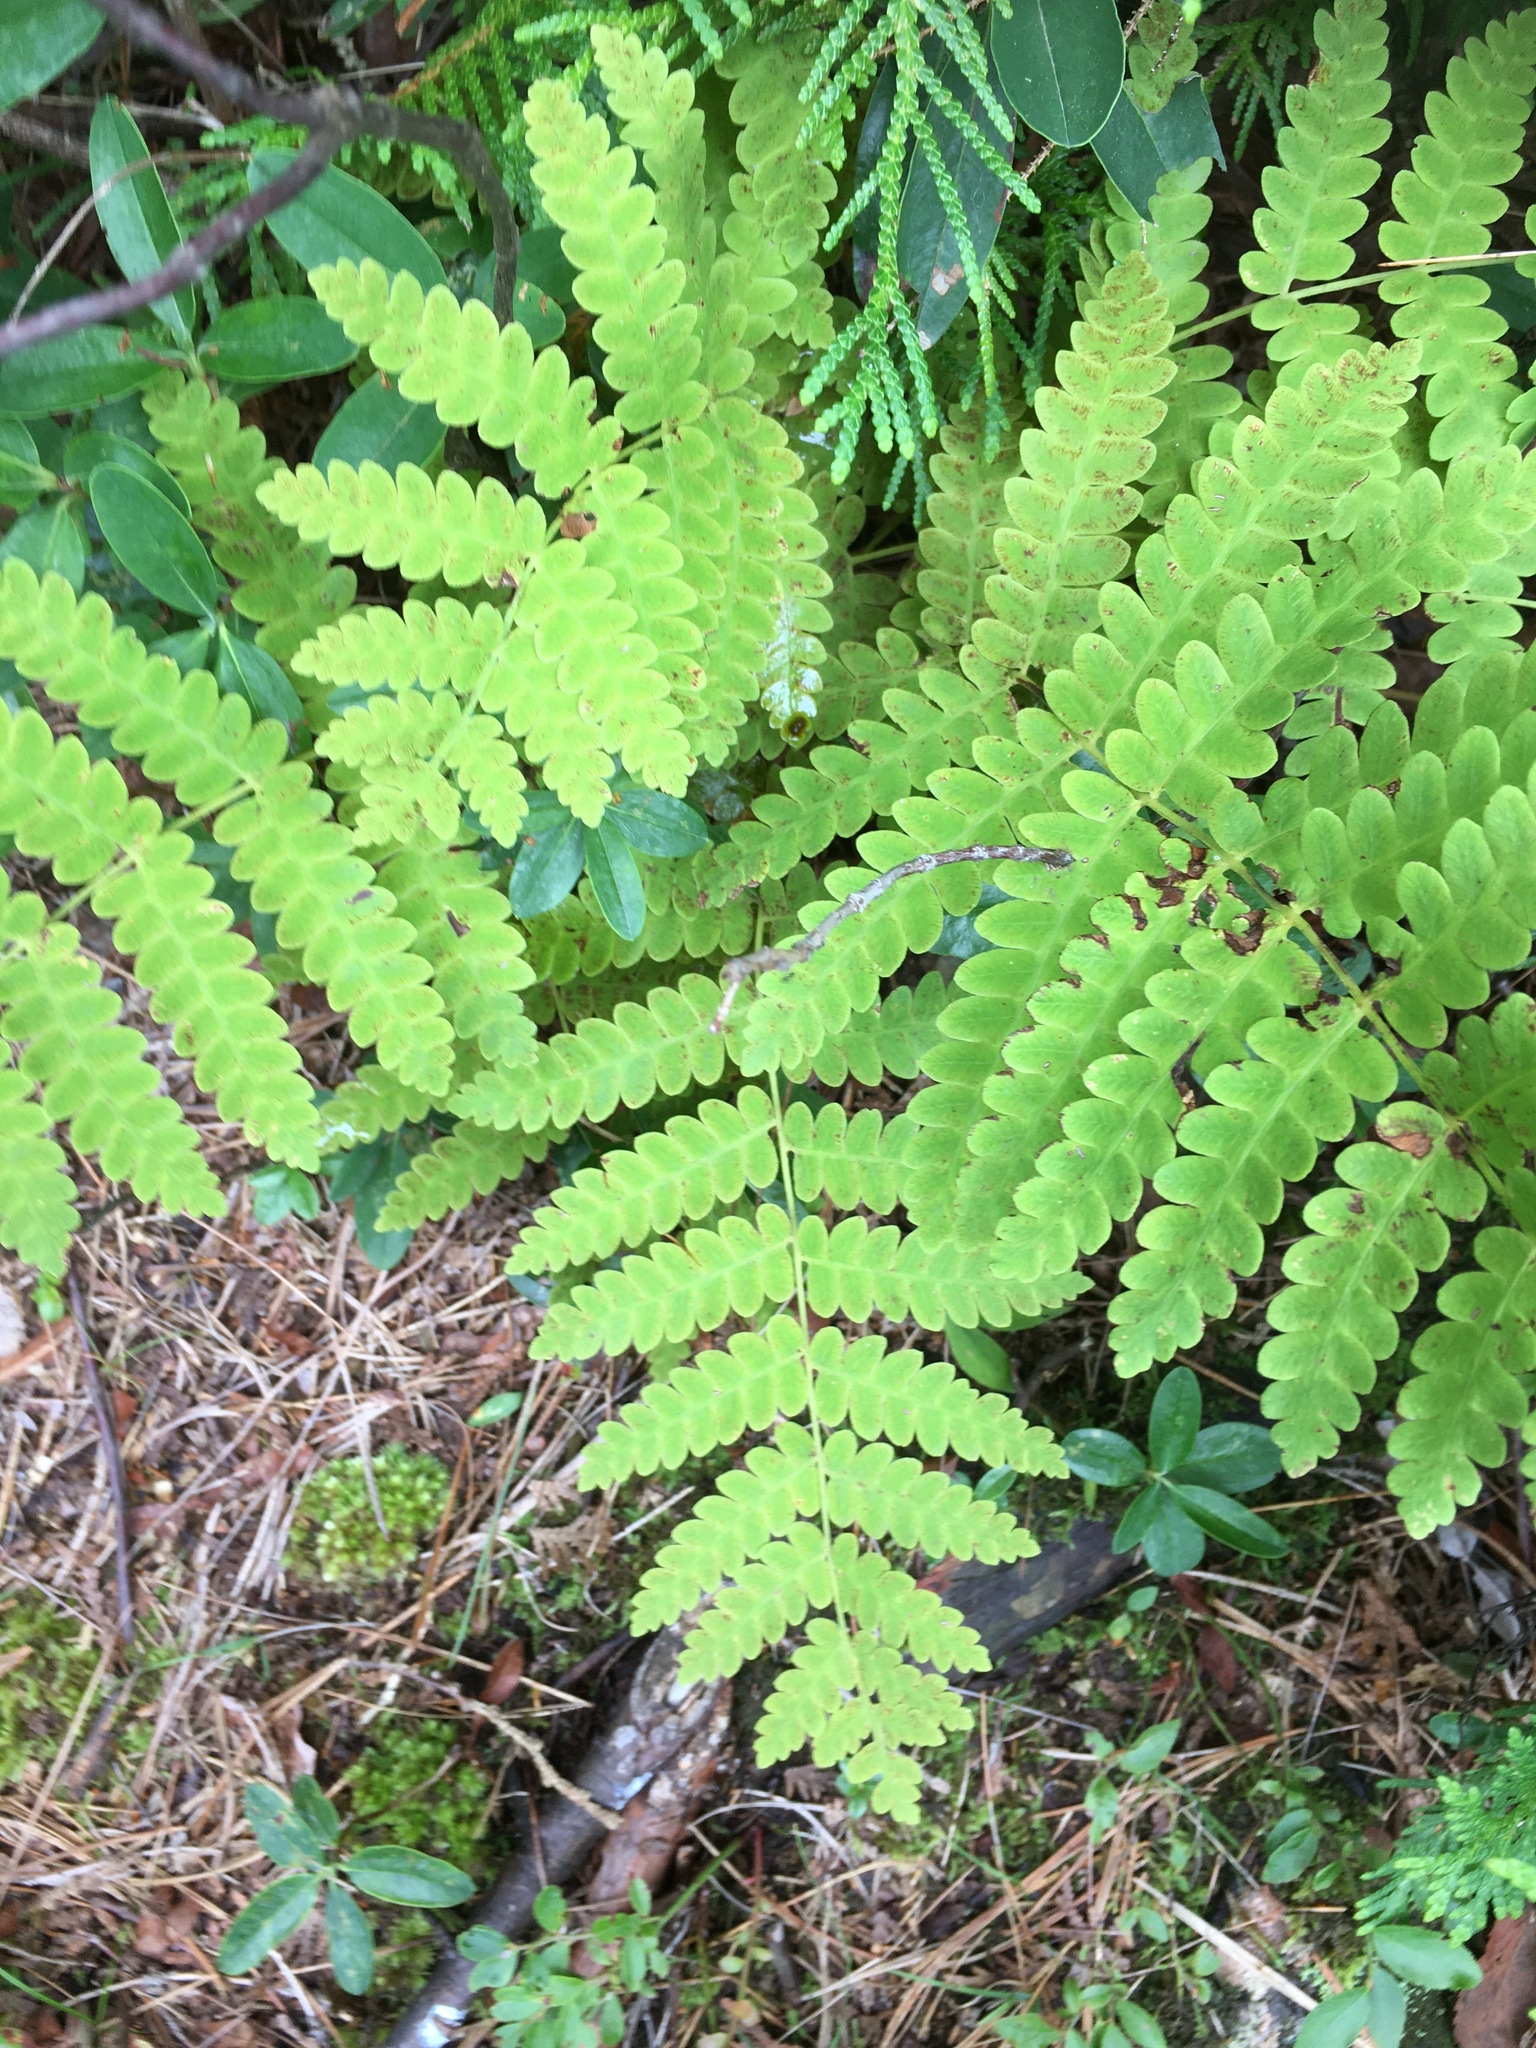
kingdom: Plantae
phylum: Tracheophyta
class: Polypodiopsida
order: Osmundales
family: Osmundaceae
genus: Claytosmunda
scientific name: Claytosmunda claytoniana
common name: Clayton's fern
